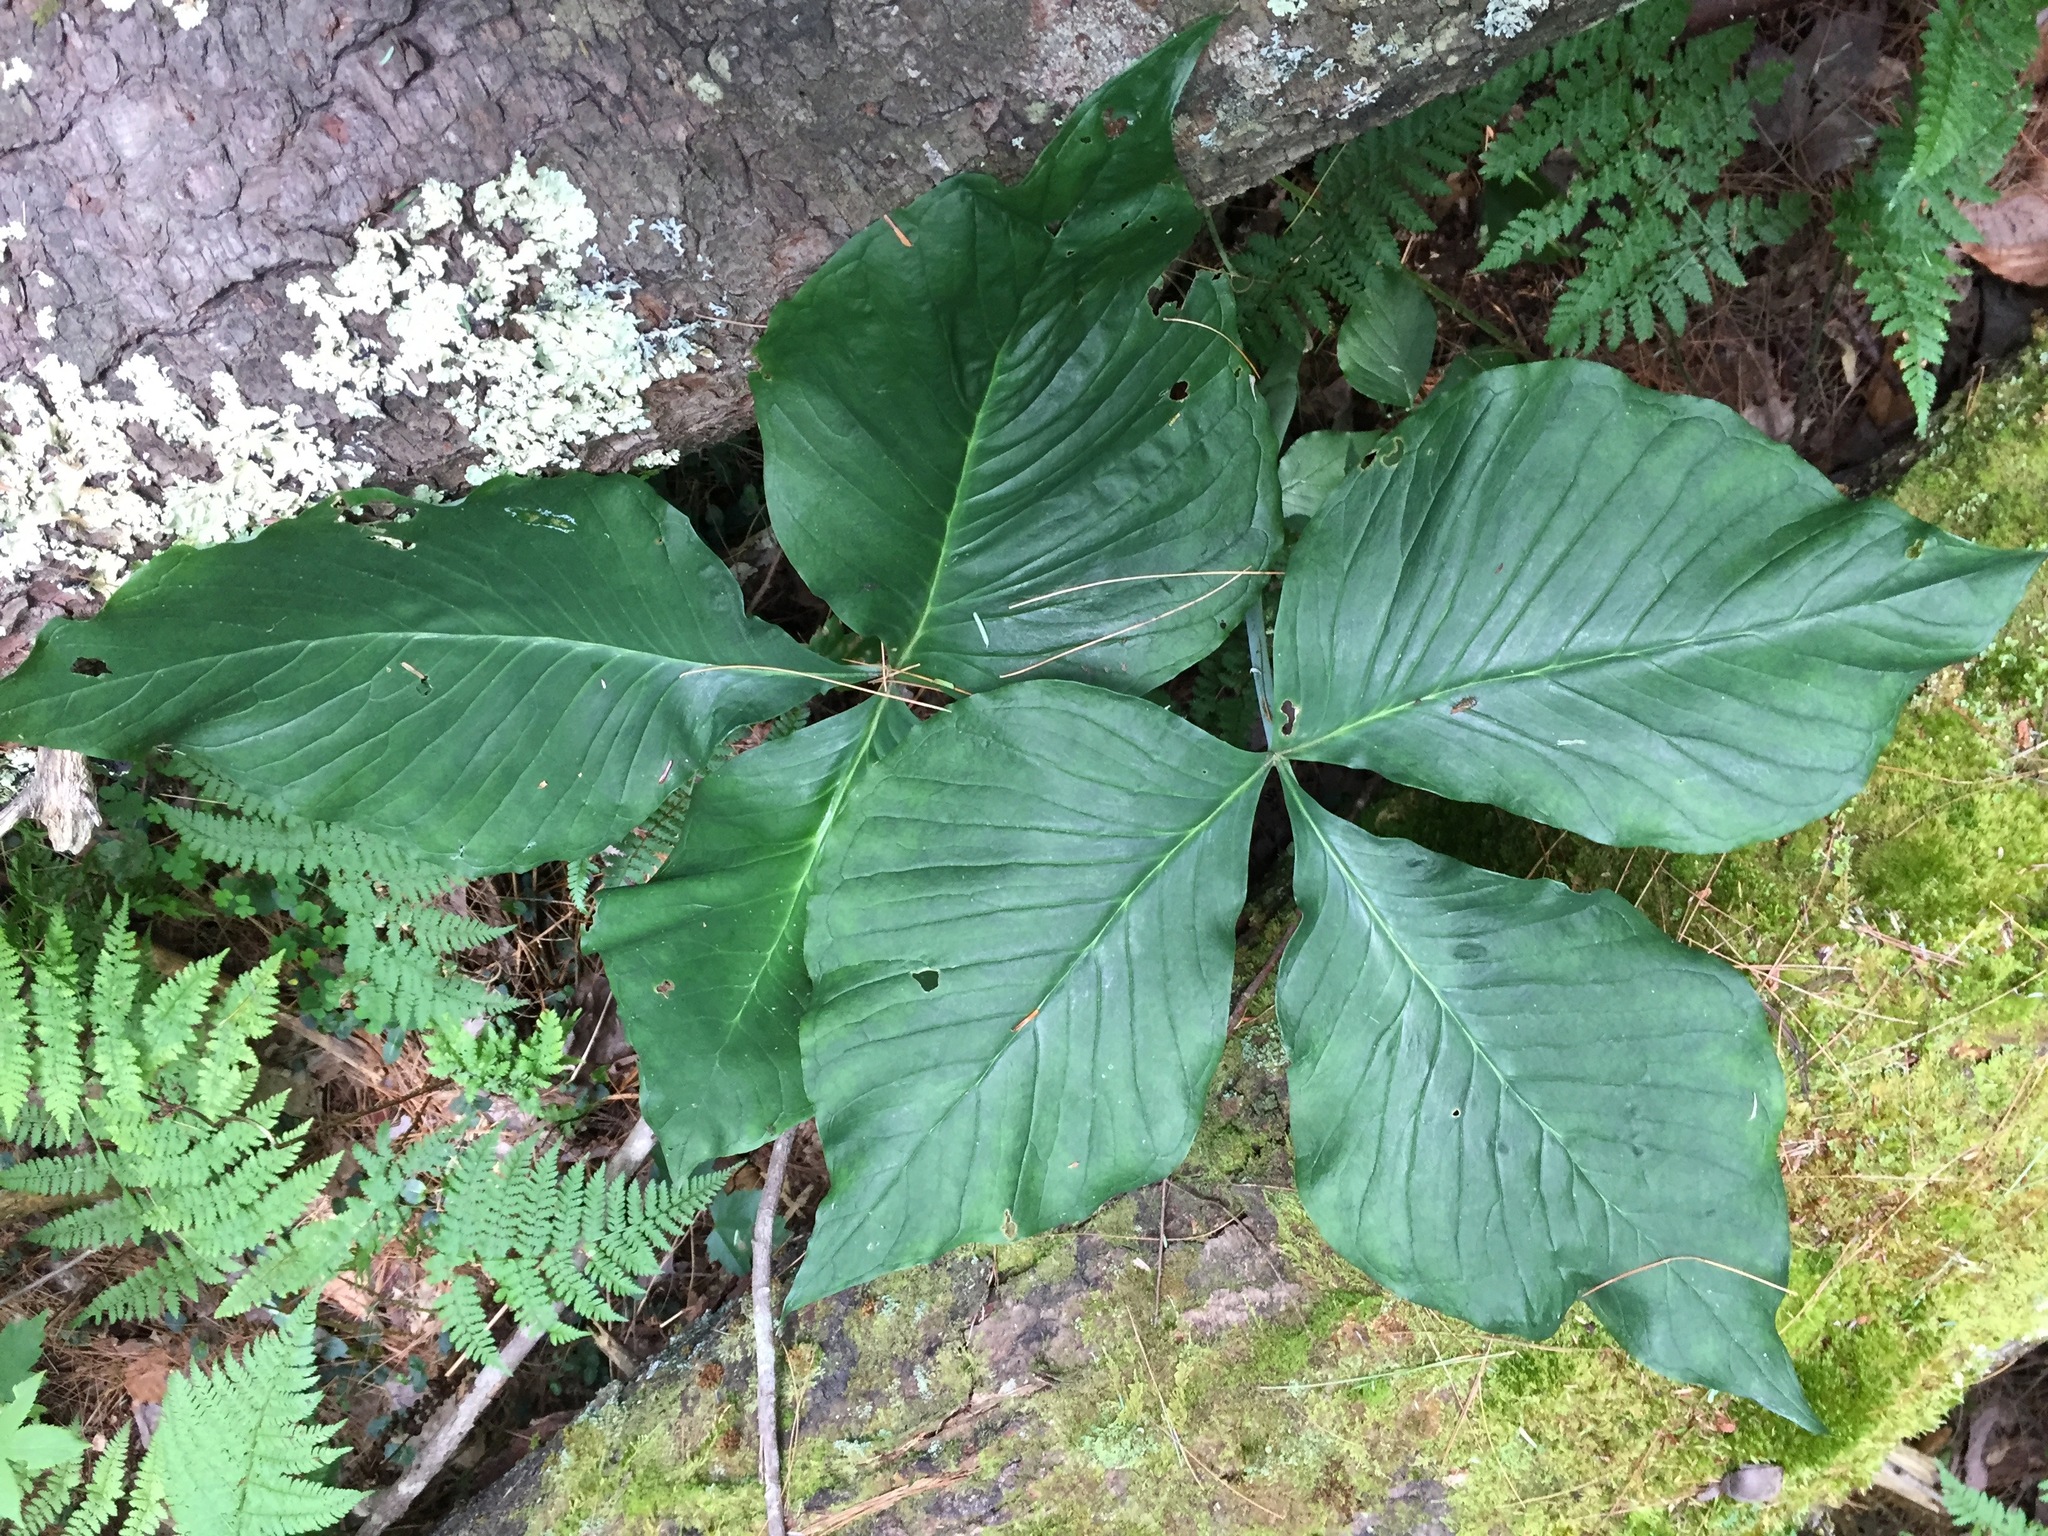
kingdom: Plantae
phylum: Tracheophyta
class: Liliopsida
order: Alismatales
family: Araceae
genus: Arisaema
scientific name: Arisaema triphyllum
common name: Jack-in-the-pulpit
